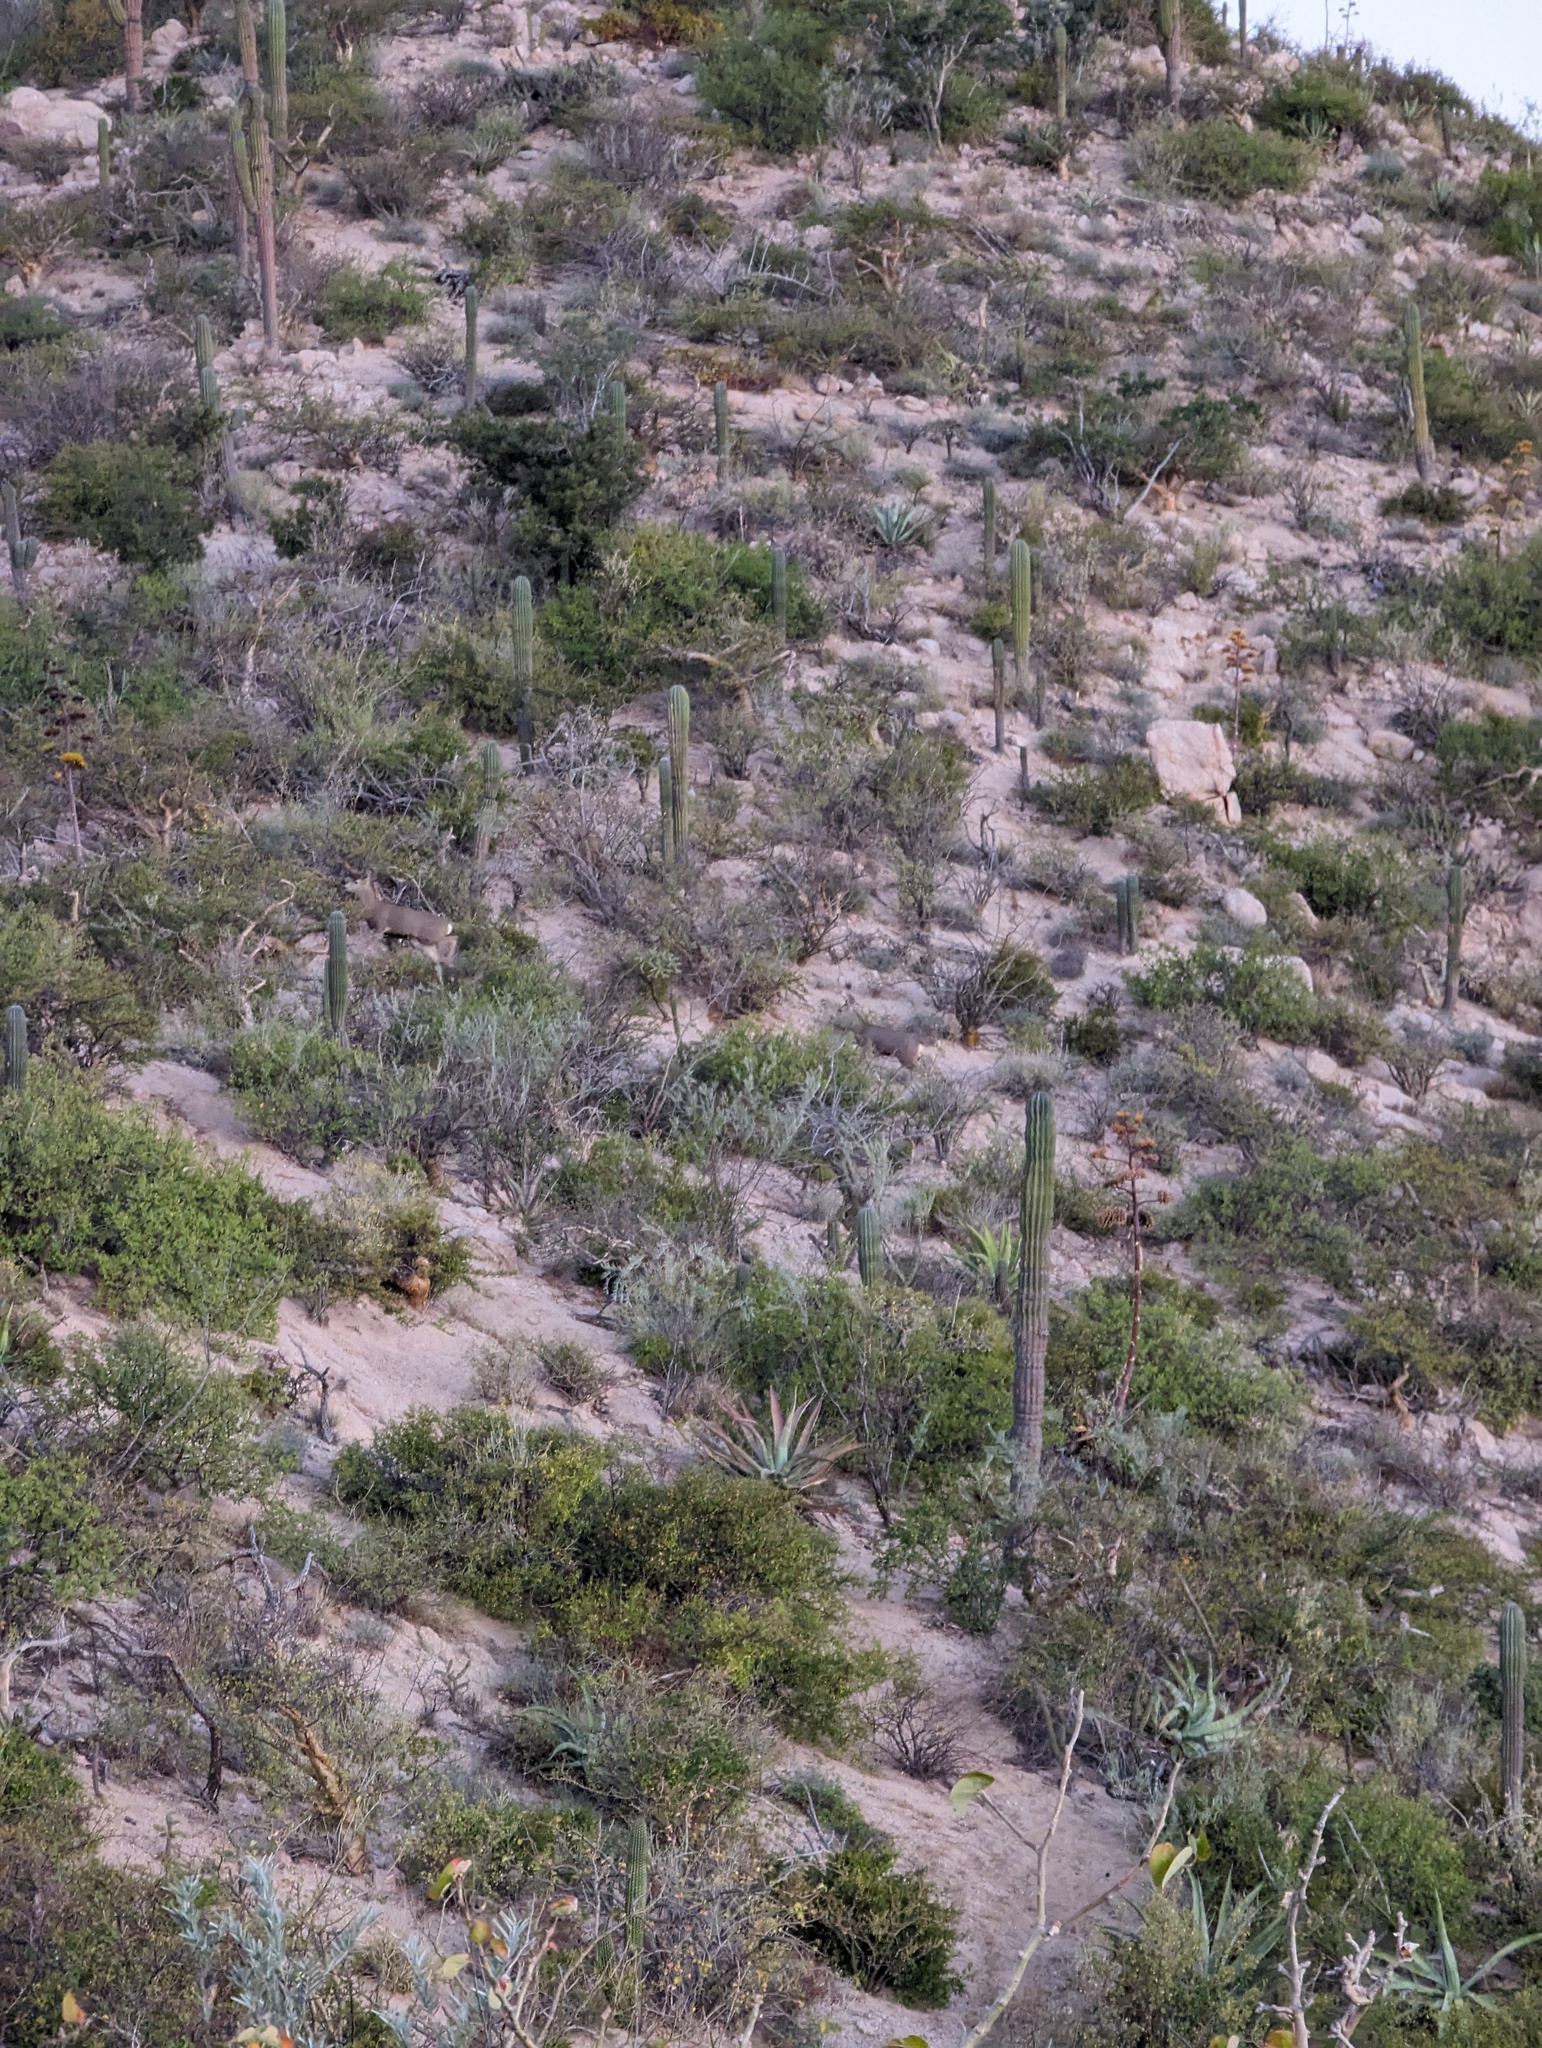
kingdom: Animalia
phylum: Chordata
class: Mammalia
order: Artiodactyla
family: Cervidae
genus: Odocoileus
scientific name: Odocoileus hemionus
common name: Mule deer
